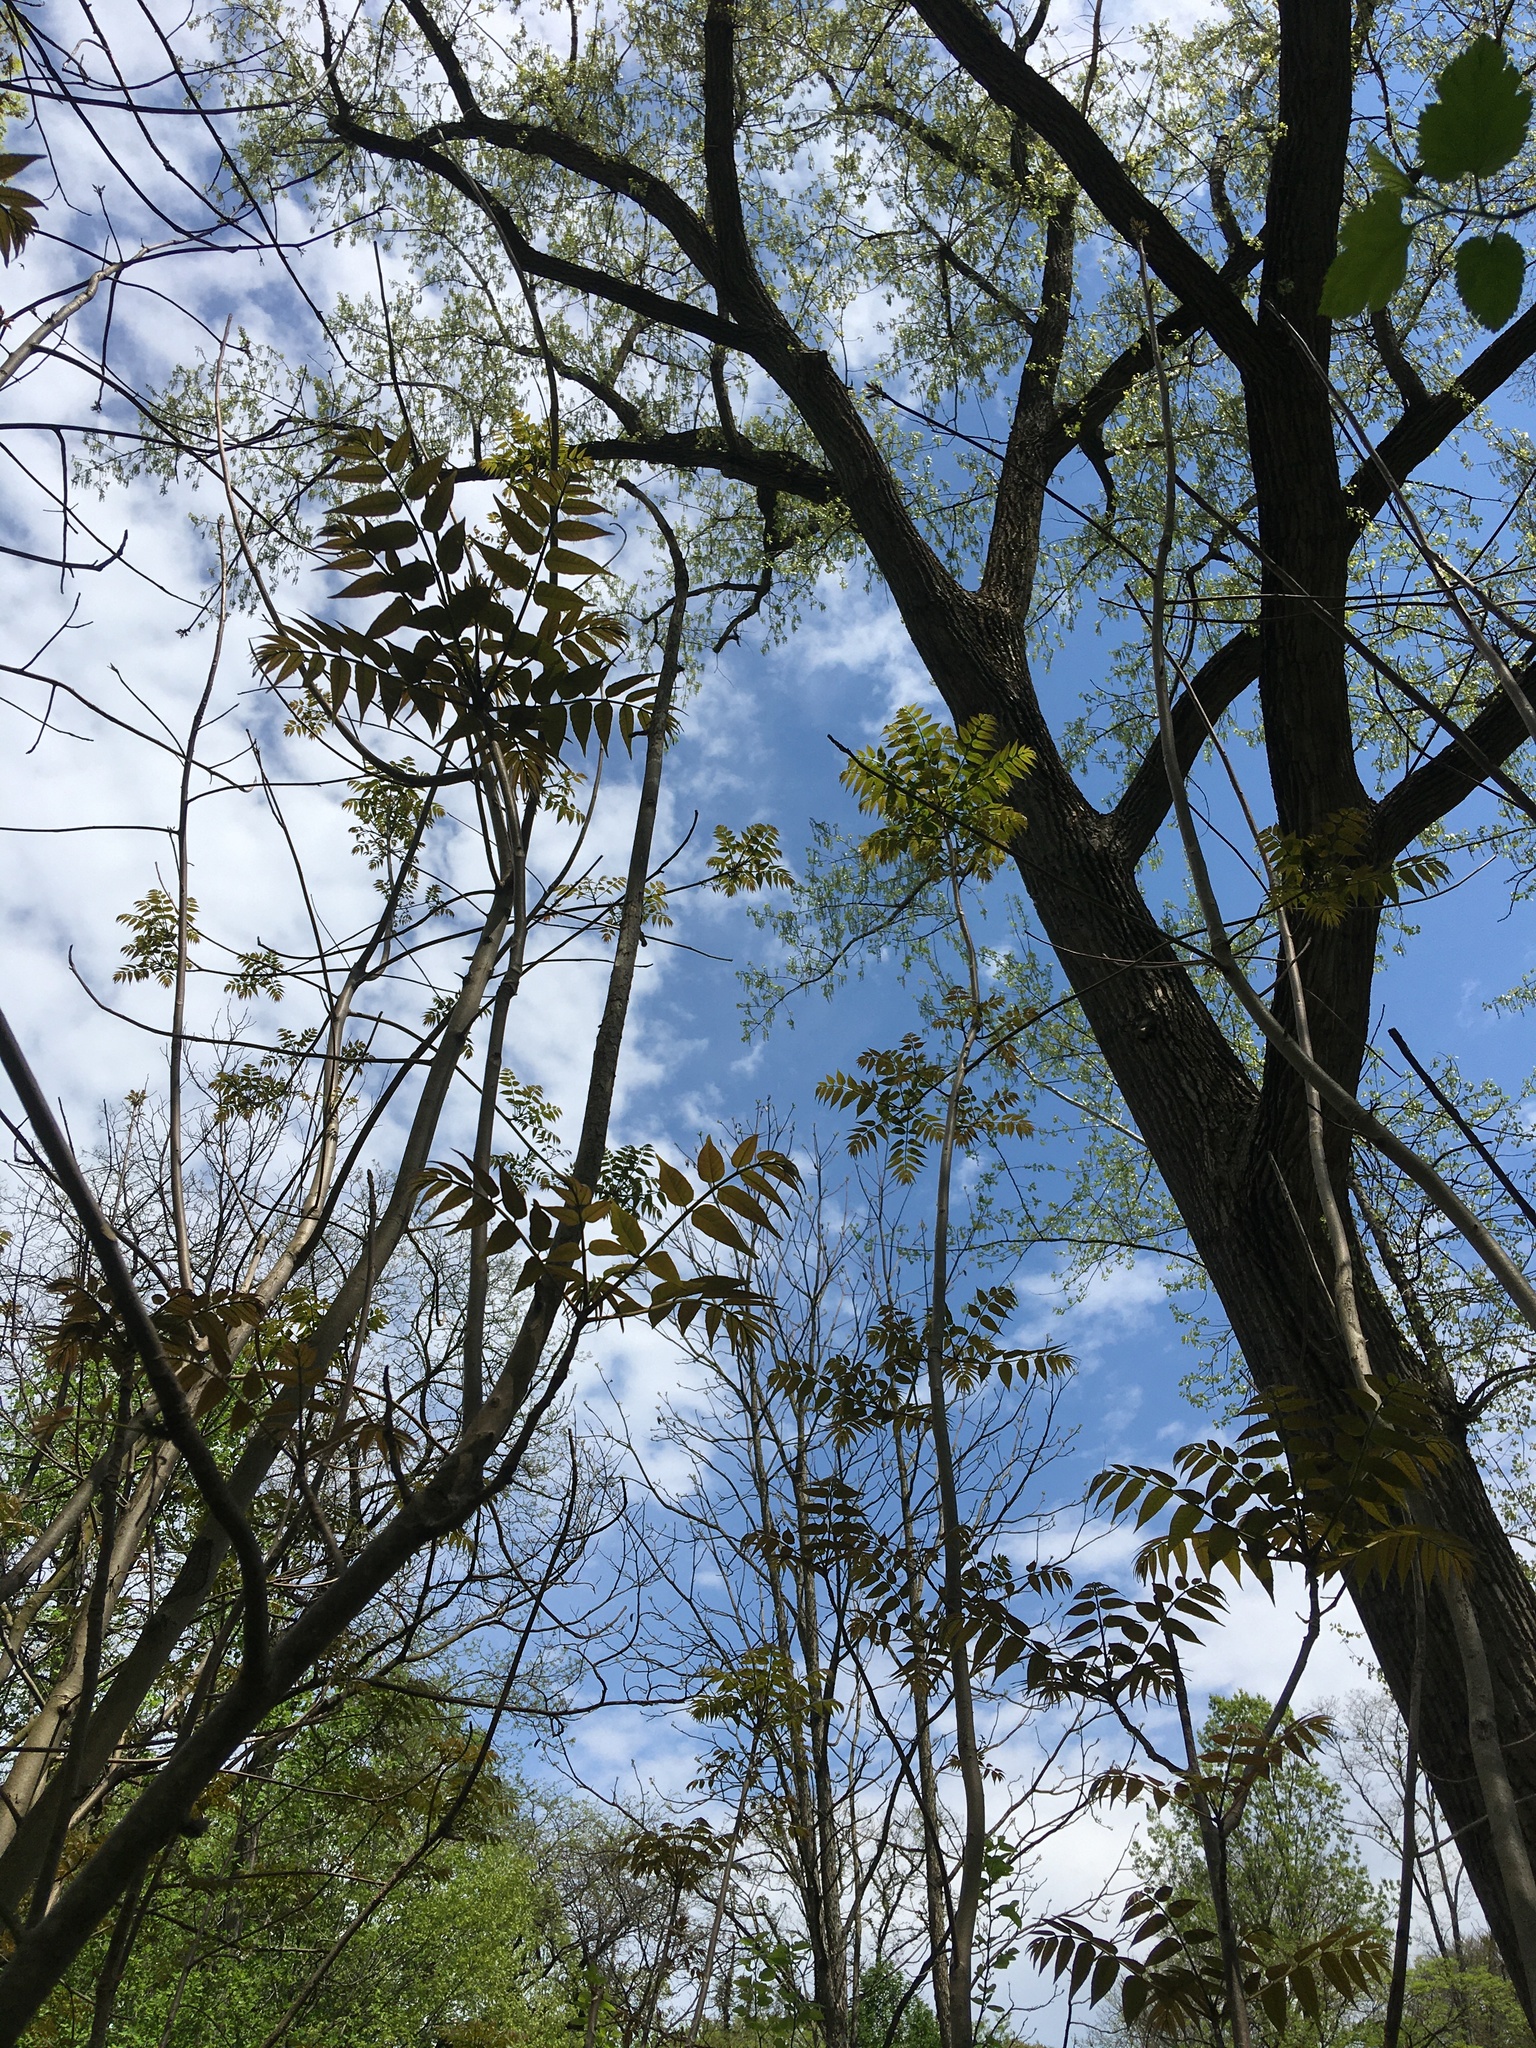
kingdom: Plantae
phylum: Tracheophyta
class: Magnoliopsida
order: Sapindales
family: Meliaceae
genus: Toona
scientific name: Toona sinensis
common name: Red toon
